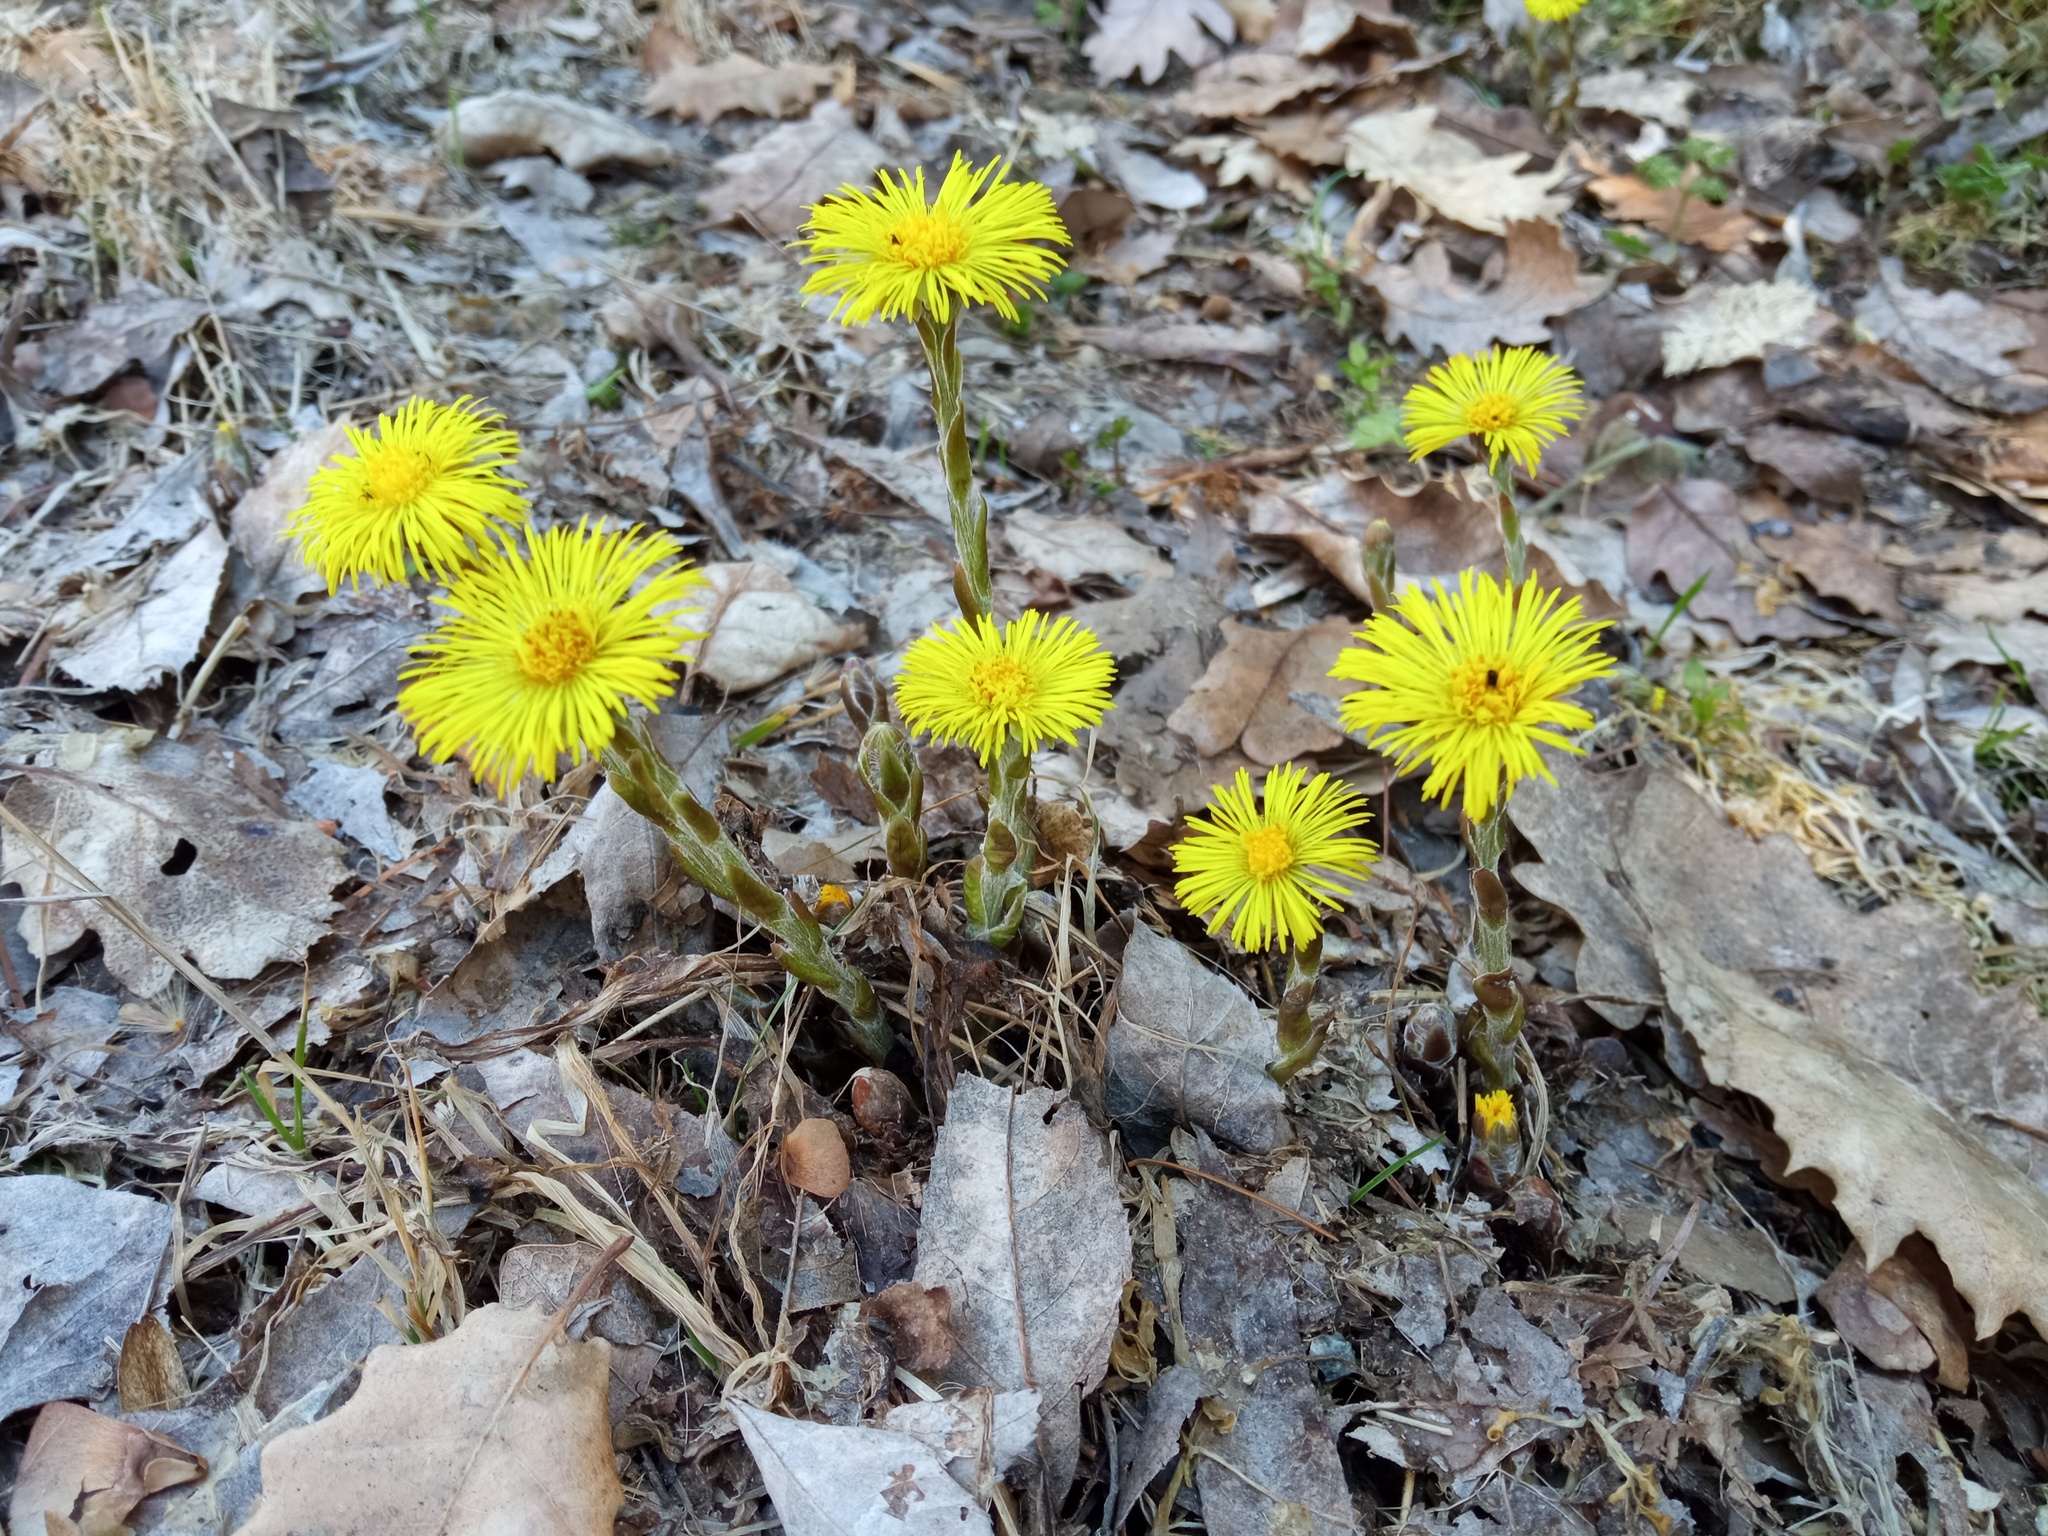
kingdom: Plantae
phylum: Tracheophyta
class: Magnoliopsida
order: Asterales
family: Asteraceae
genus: Tussilago
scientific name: Tussilago farfara
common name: Coltsfoot
